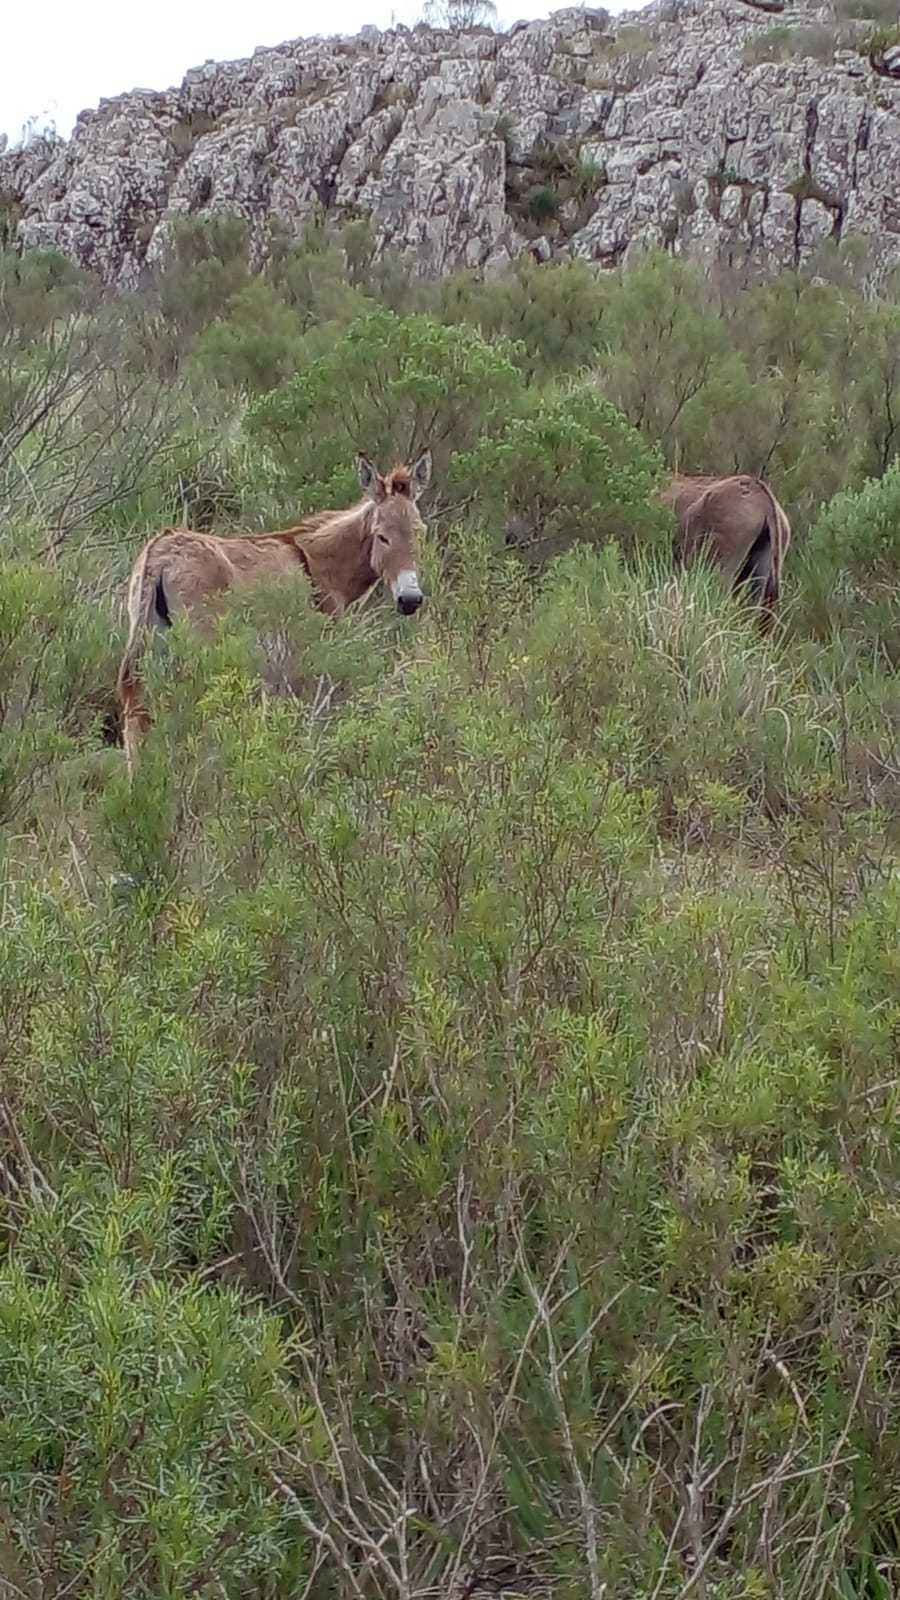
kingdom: Animalia
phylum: Chordata
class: Mammalia
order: Perissodactyla
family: Equidae
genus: Equus
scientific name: Equus asinus
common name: Ass
